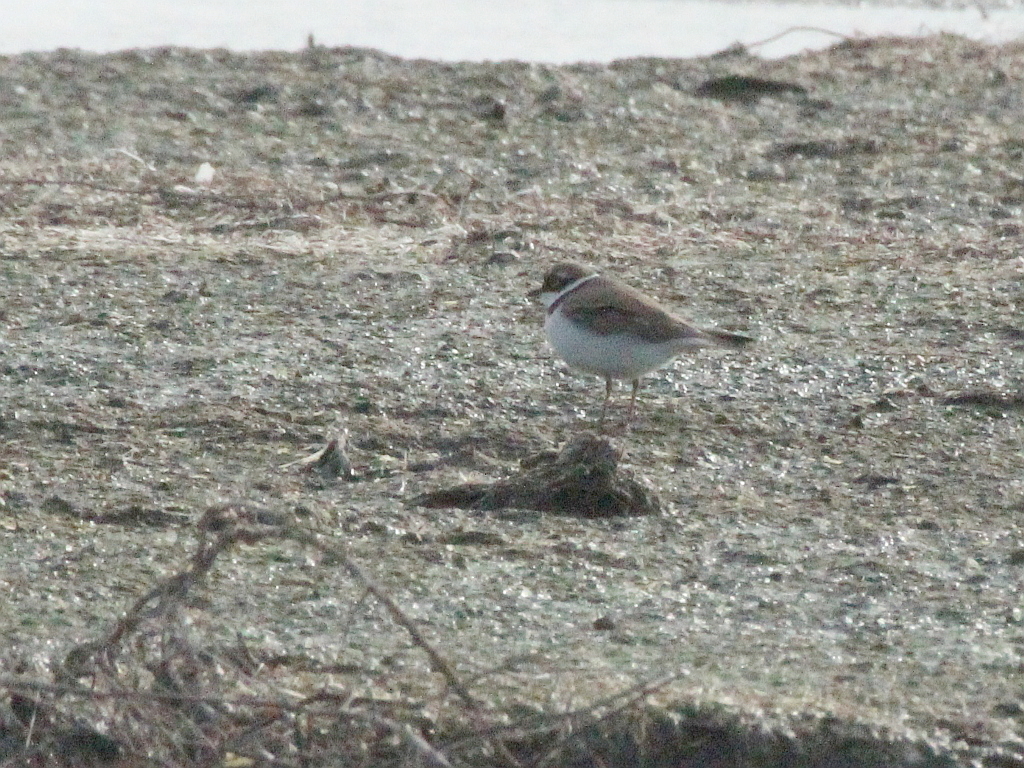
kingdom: Animalia
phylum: Chordata
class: Aves
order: Charadriiformes
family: Charadriidae
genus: Charadrius
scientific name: Charadrius dubius
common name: Little ringed plover
